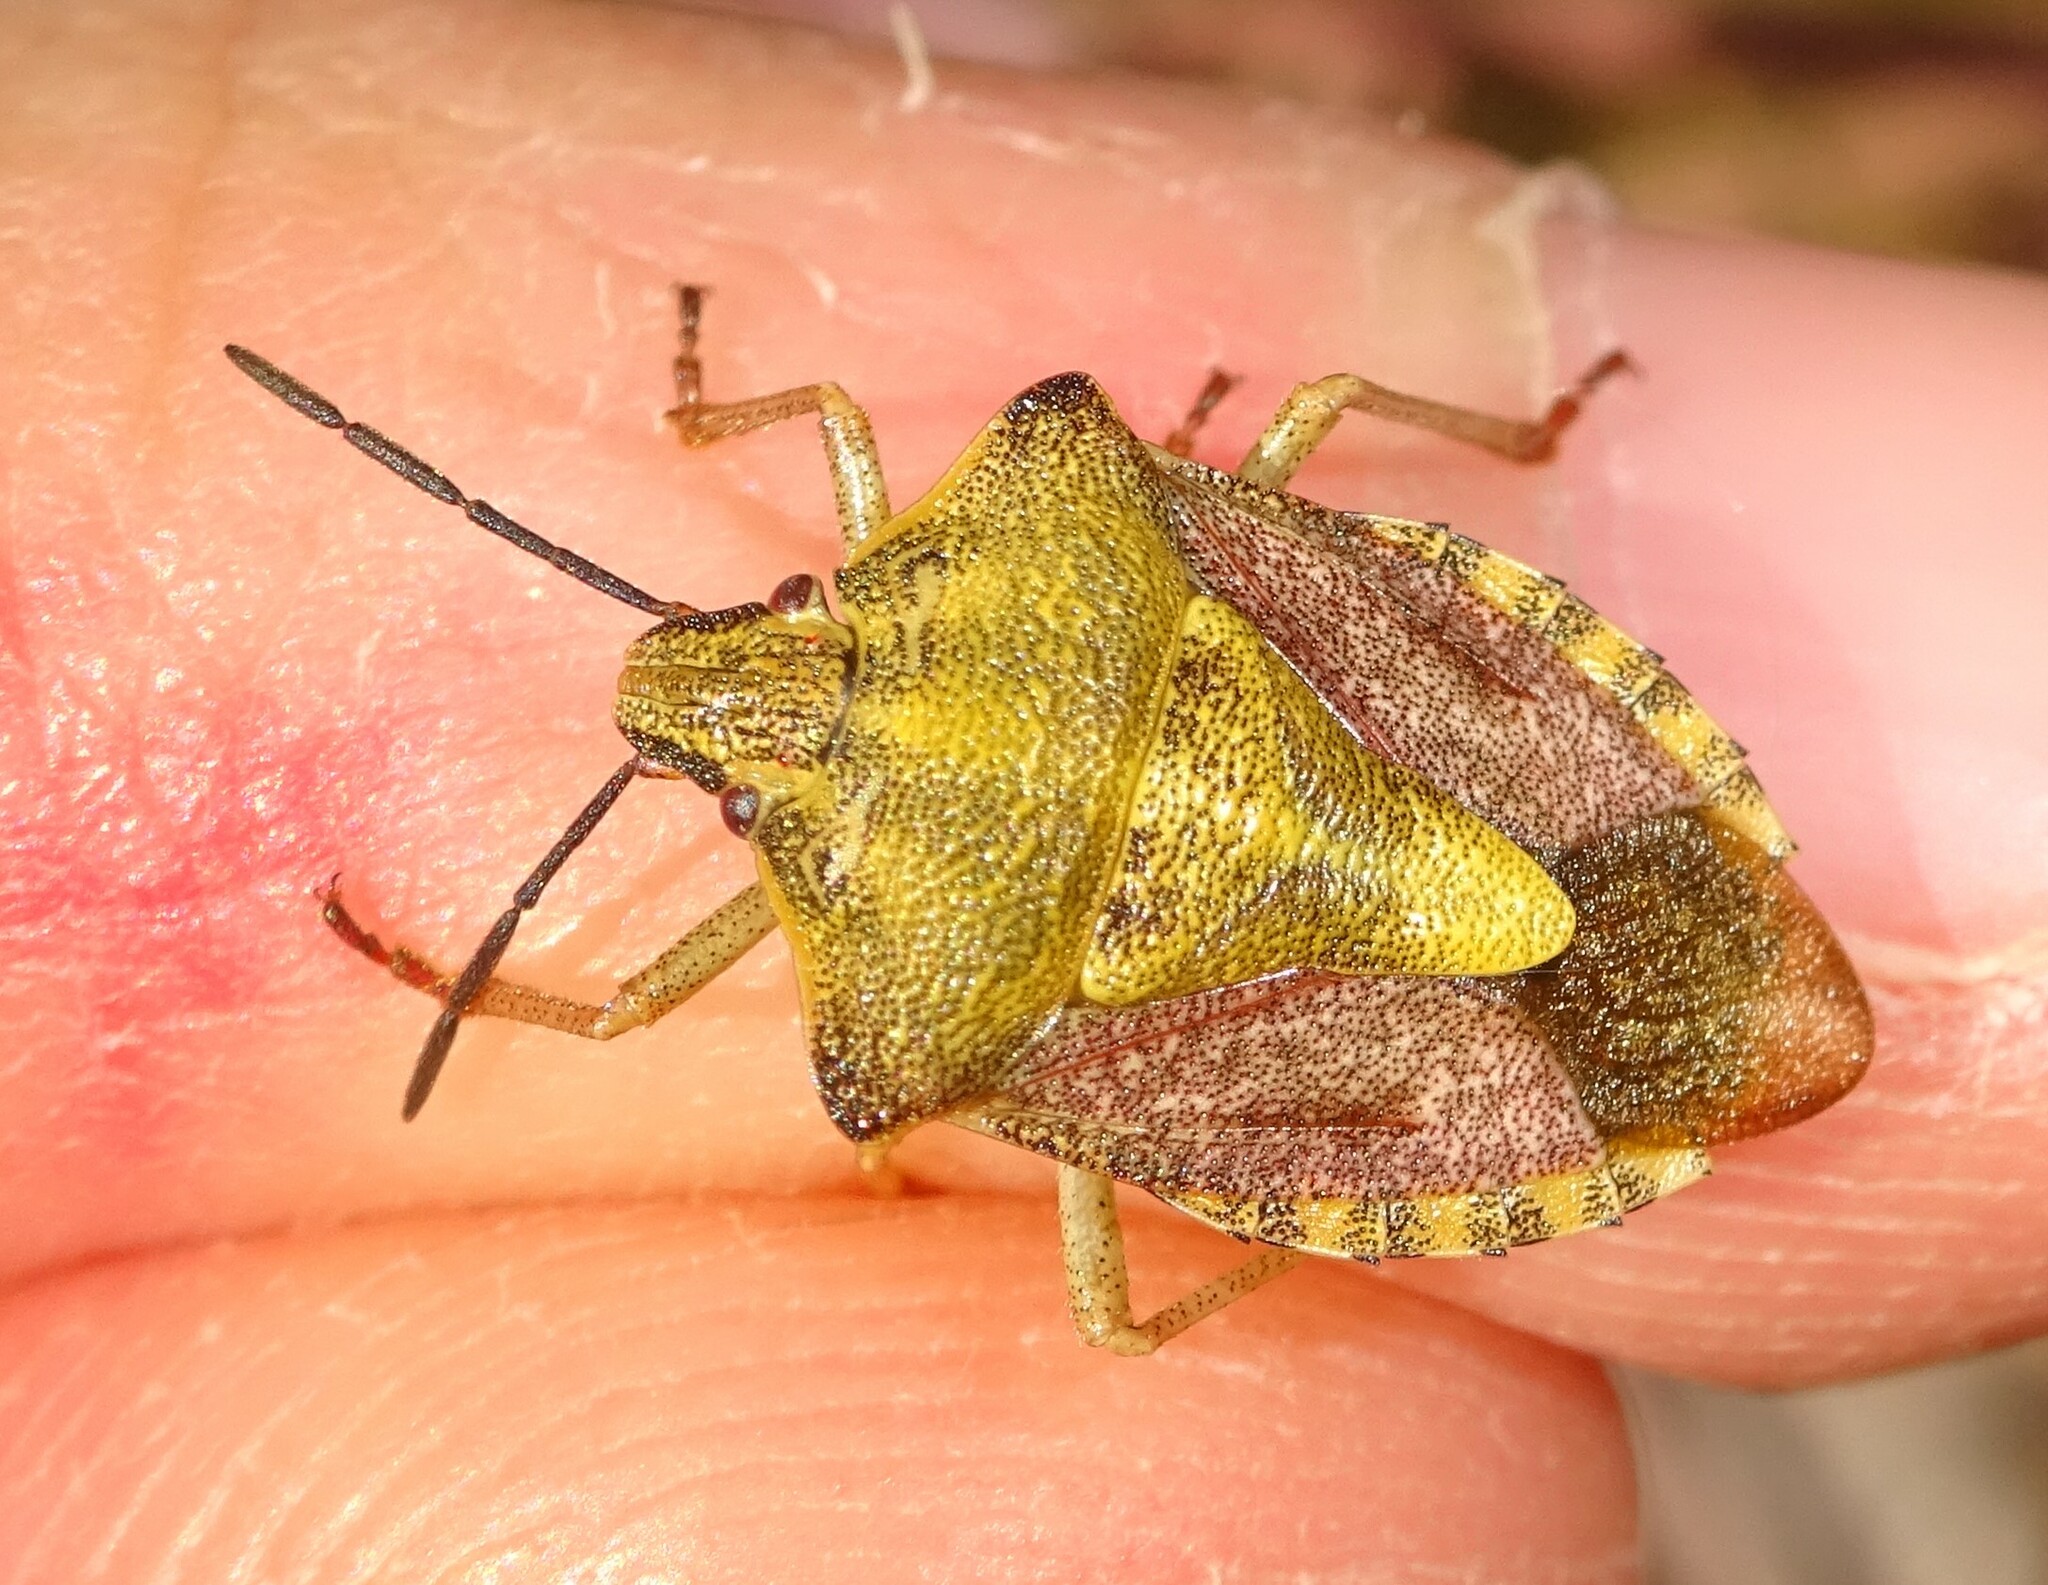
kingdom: Animalia
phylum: Arthropoda
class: Insecta
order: Hemiptera
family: Pentatomidae
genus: Carpocoris
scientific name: Carpocoris purpureipennis
